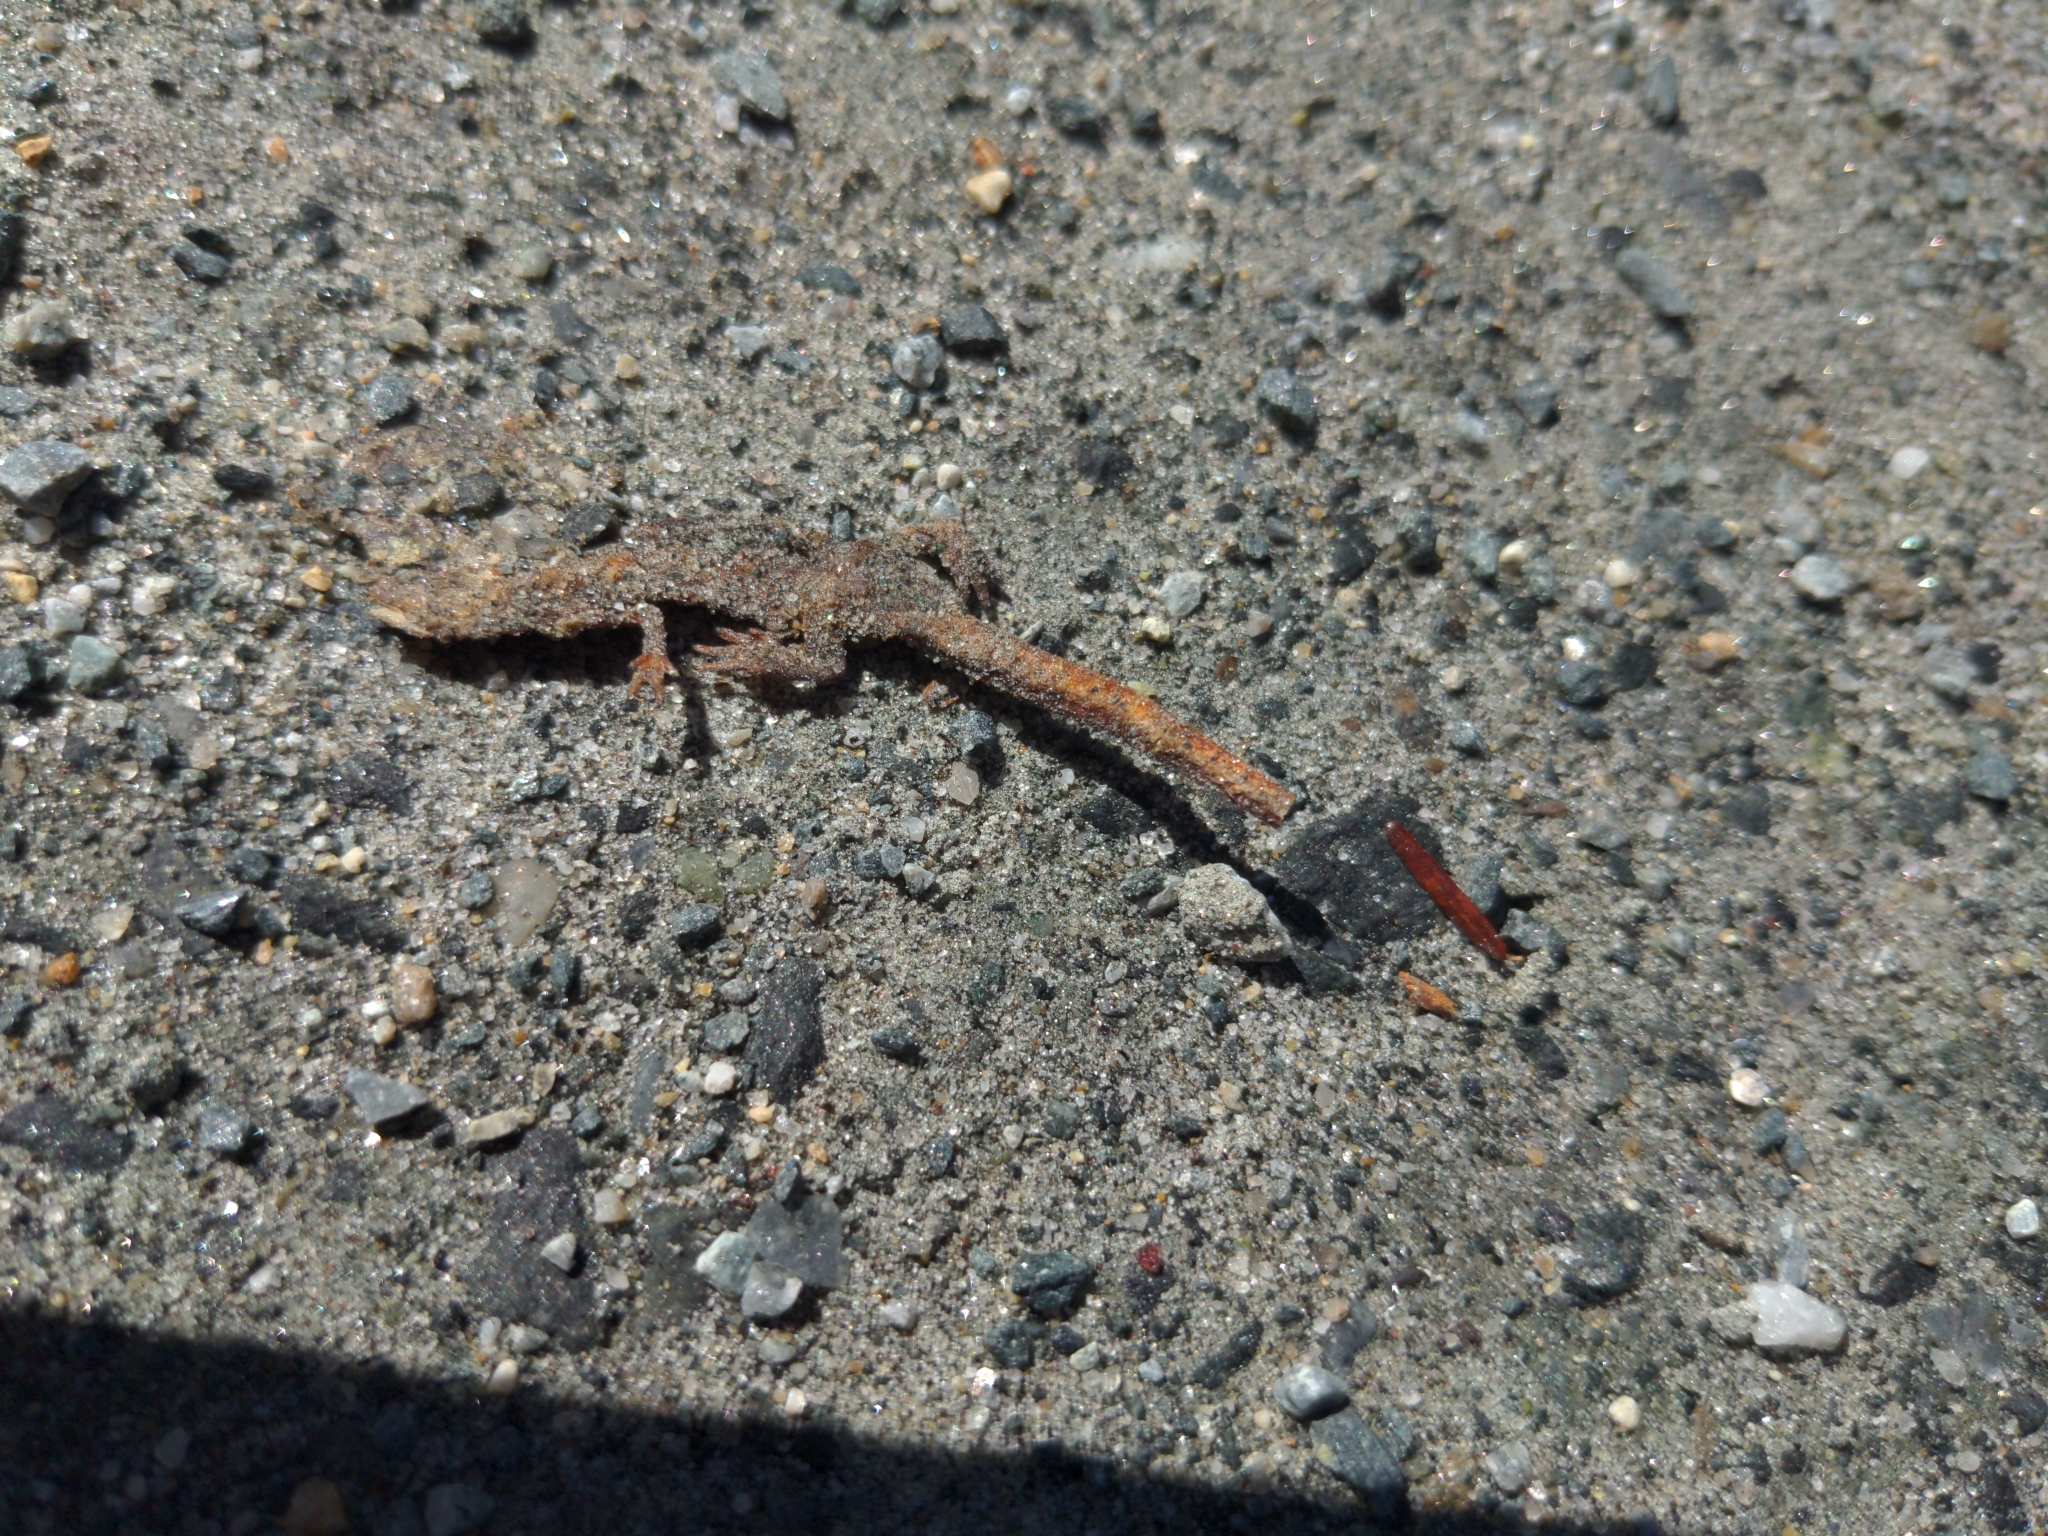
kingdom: Animalia
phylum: Chordata
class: Amphibia
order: Caudata
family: Salamandridae
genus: Notophthalmus
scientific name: Notophthalmus viridescens
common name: Eastern newt
